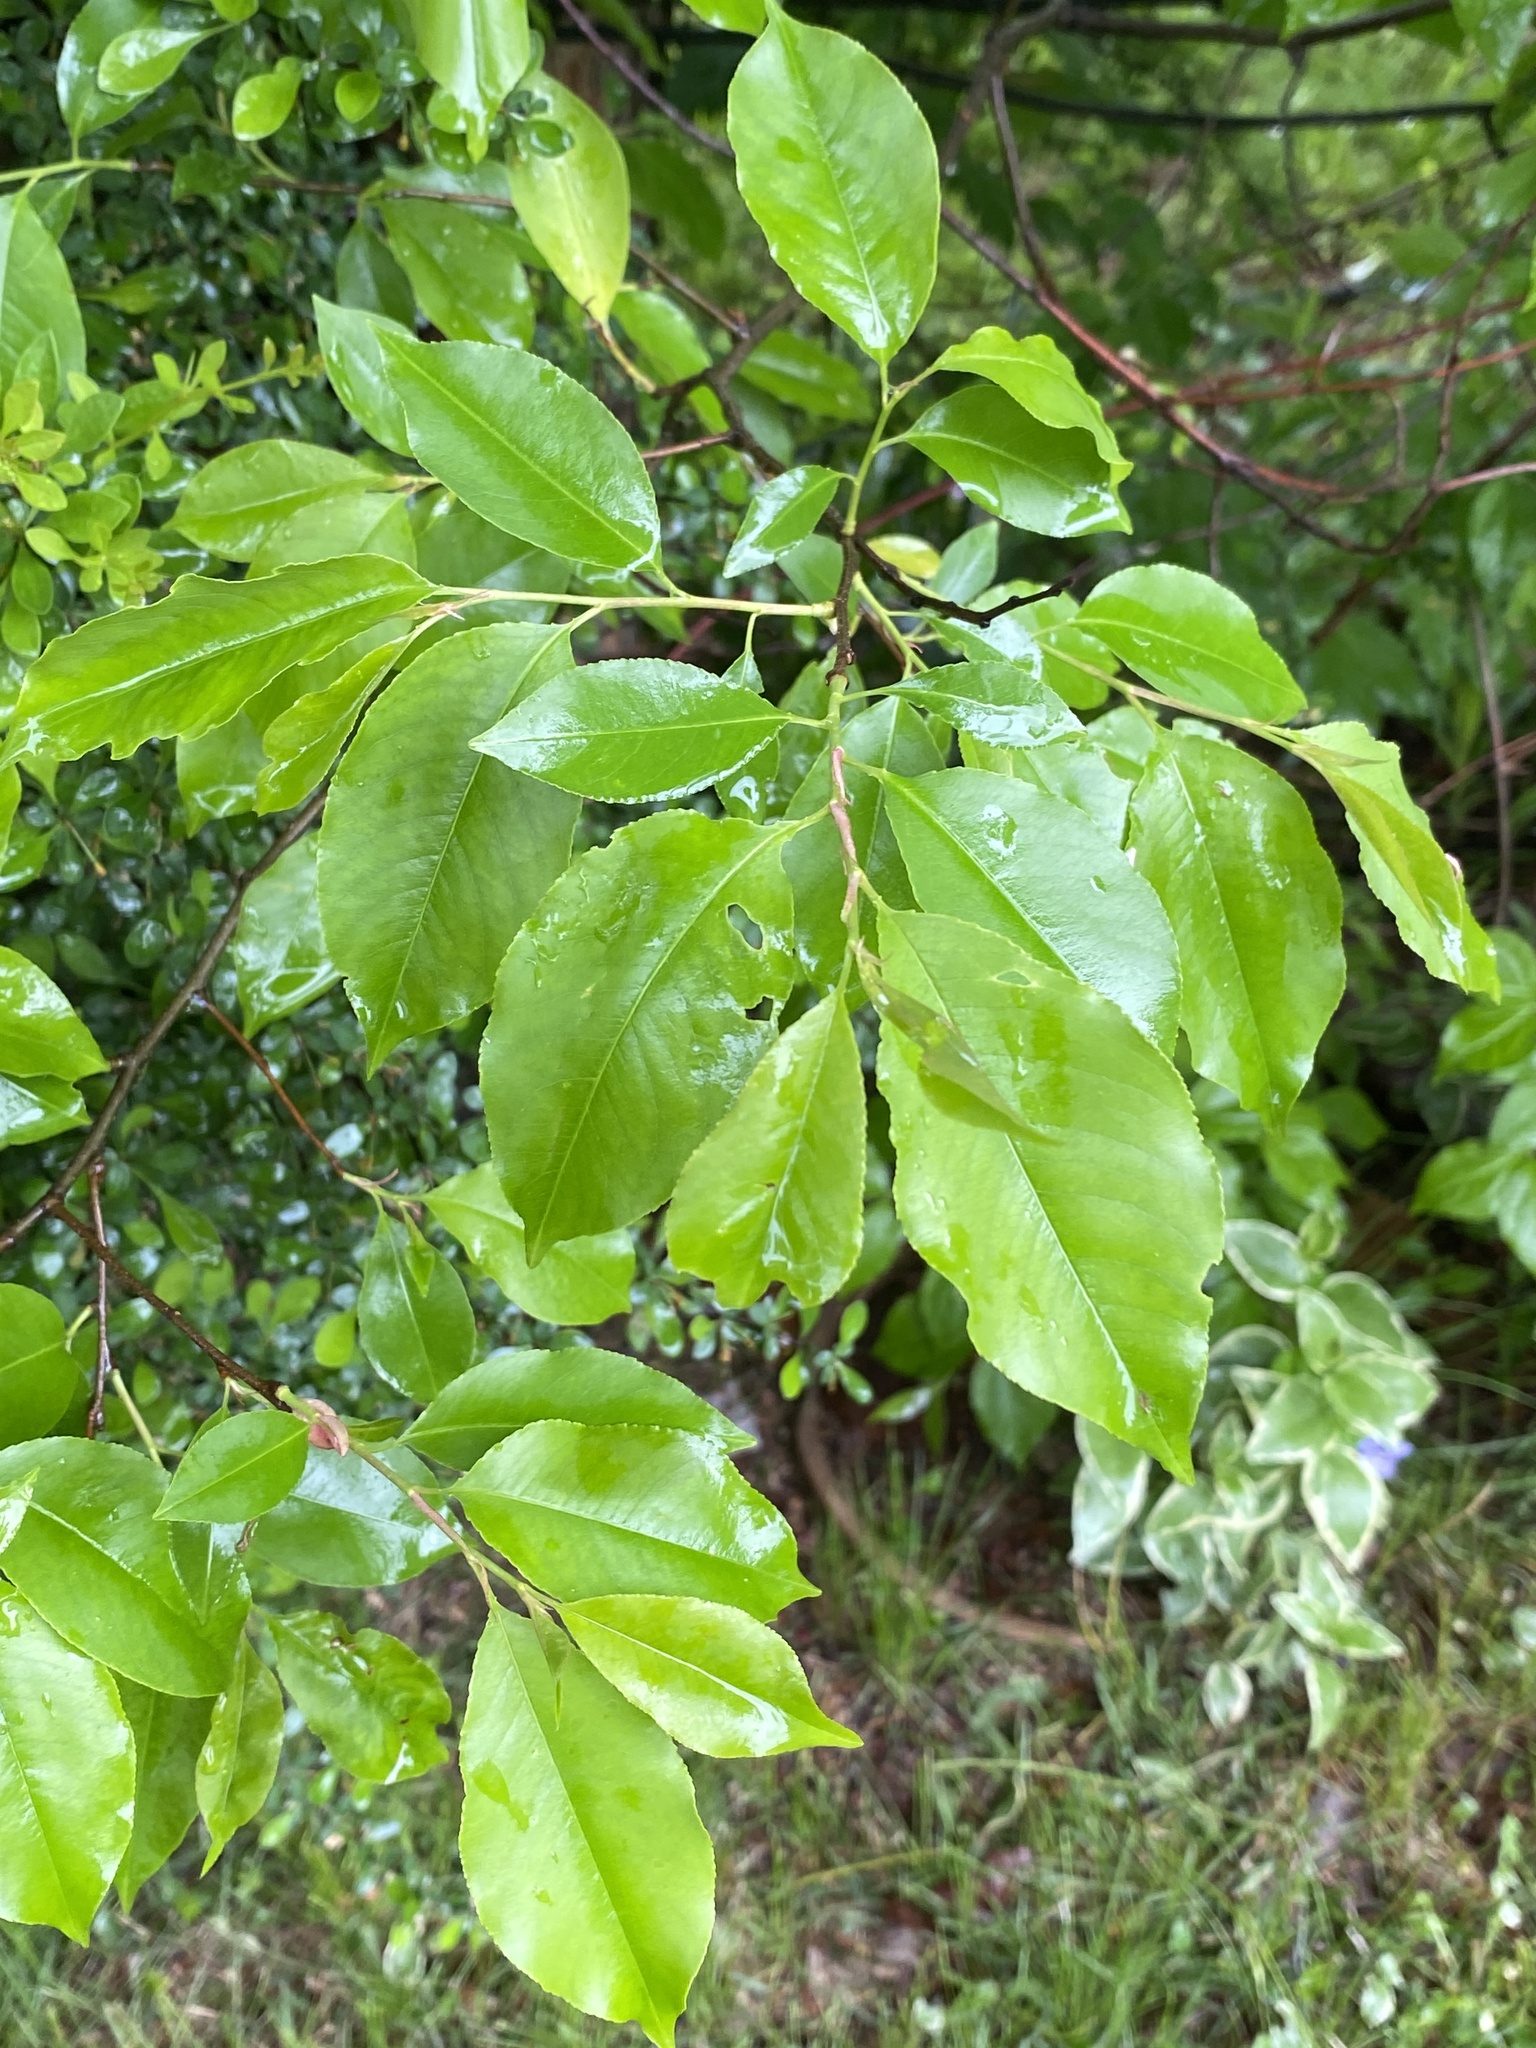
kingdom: Plantae
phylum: Tracheophyta
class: Magnoliopsida
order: Rosales
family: Rosaceae
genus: Prunus
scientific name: Prunus serotina
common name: Black cherry
